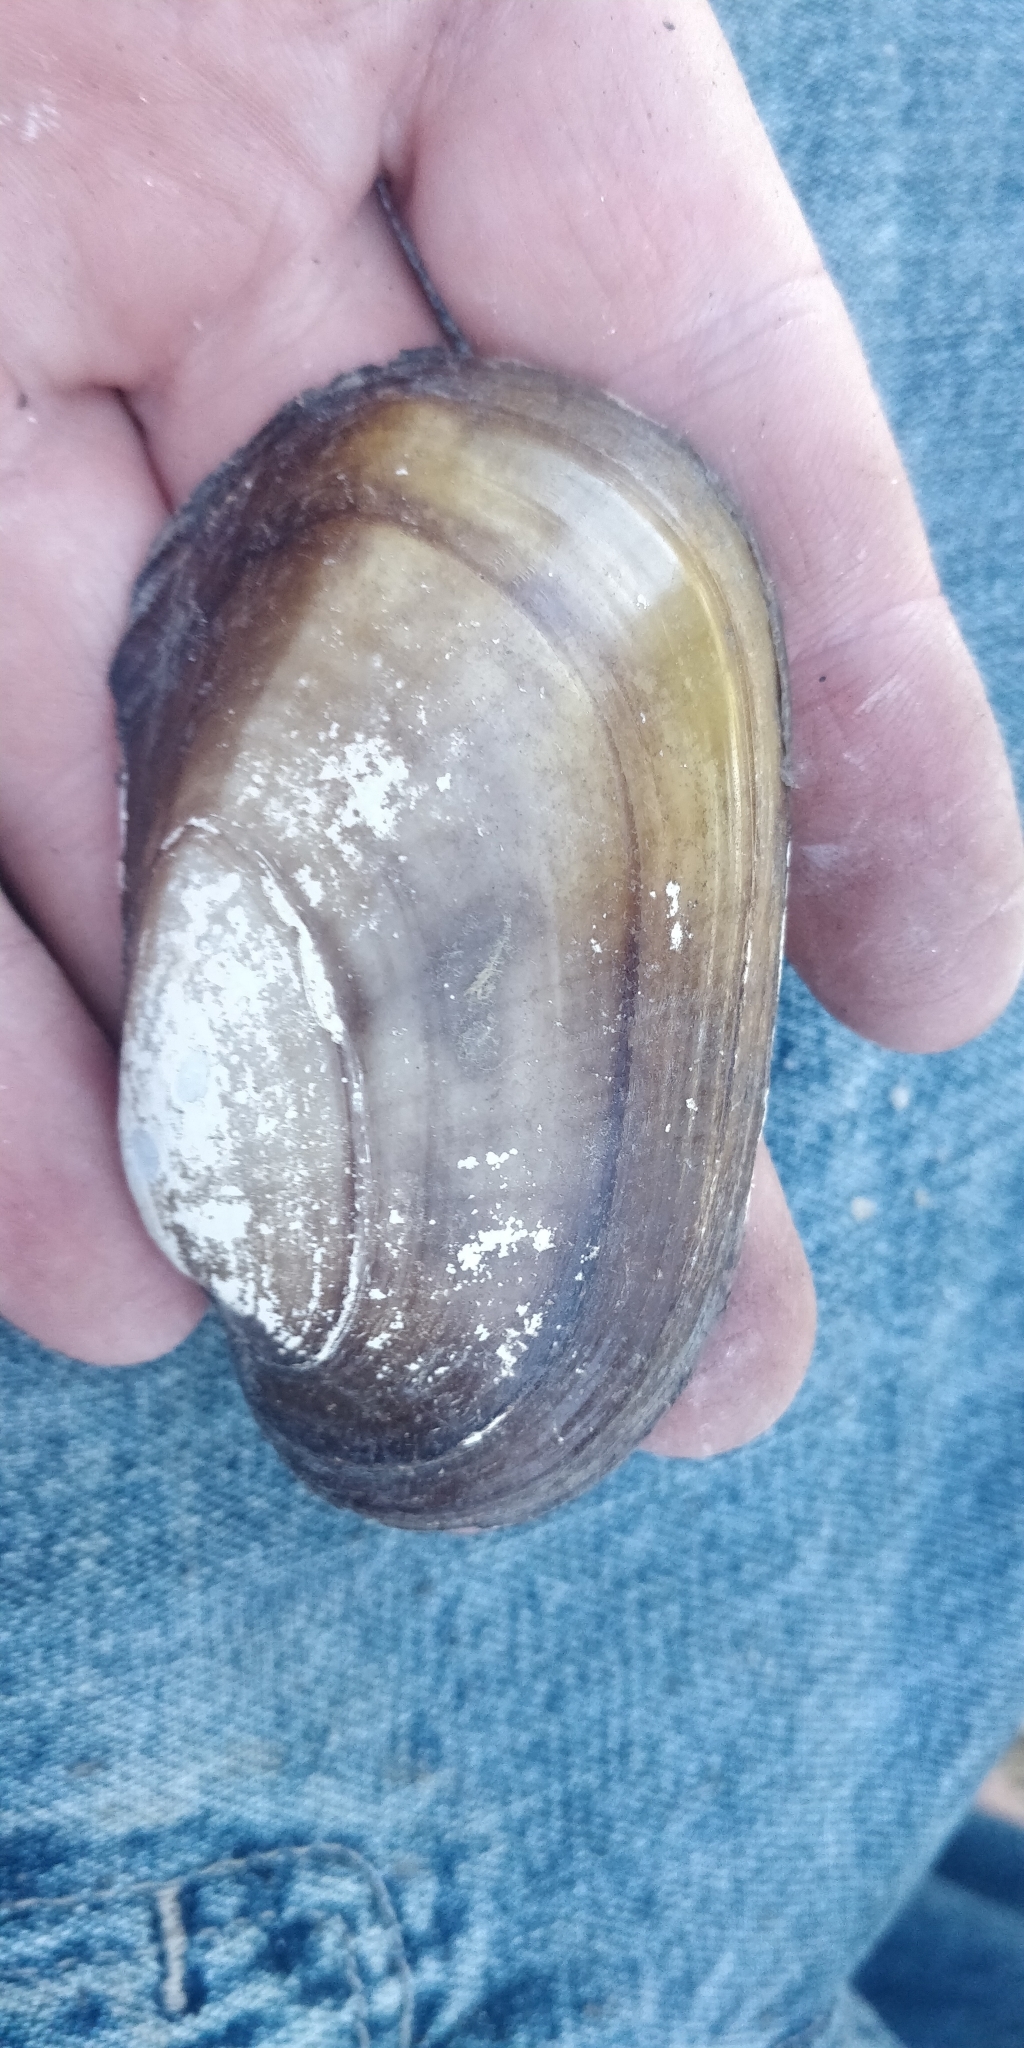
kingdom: Animalia
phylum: Mollusca
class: Bivalvia
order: Unionida
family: Unionidae
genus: Lampsilis
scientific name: Lampsilis siliquoidea
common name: Fatmucket
